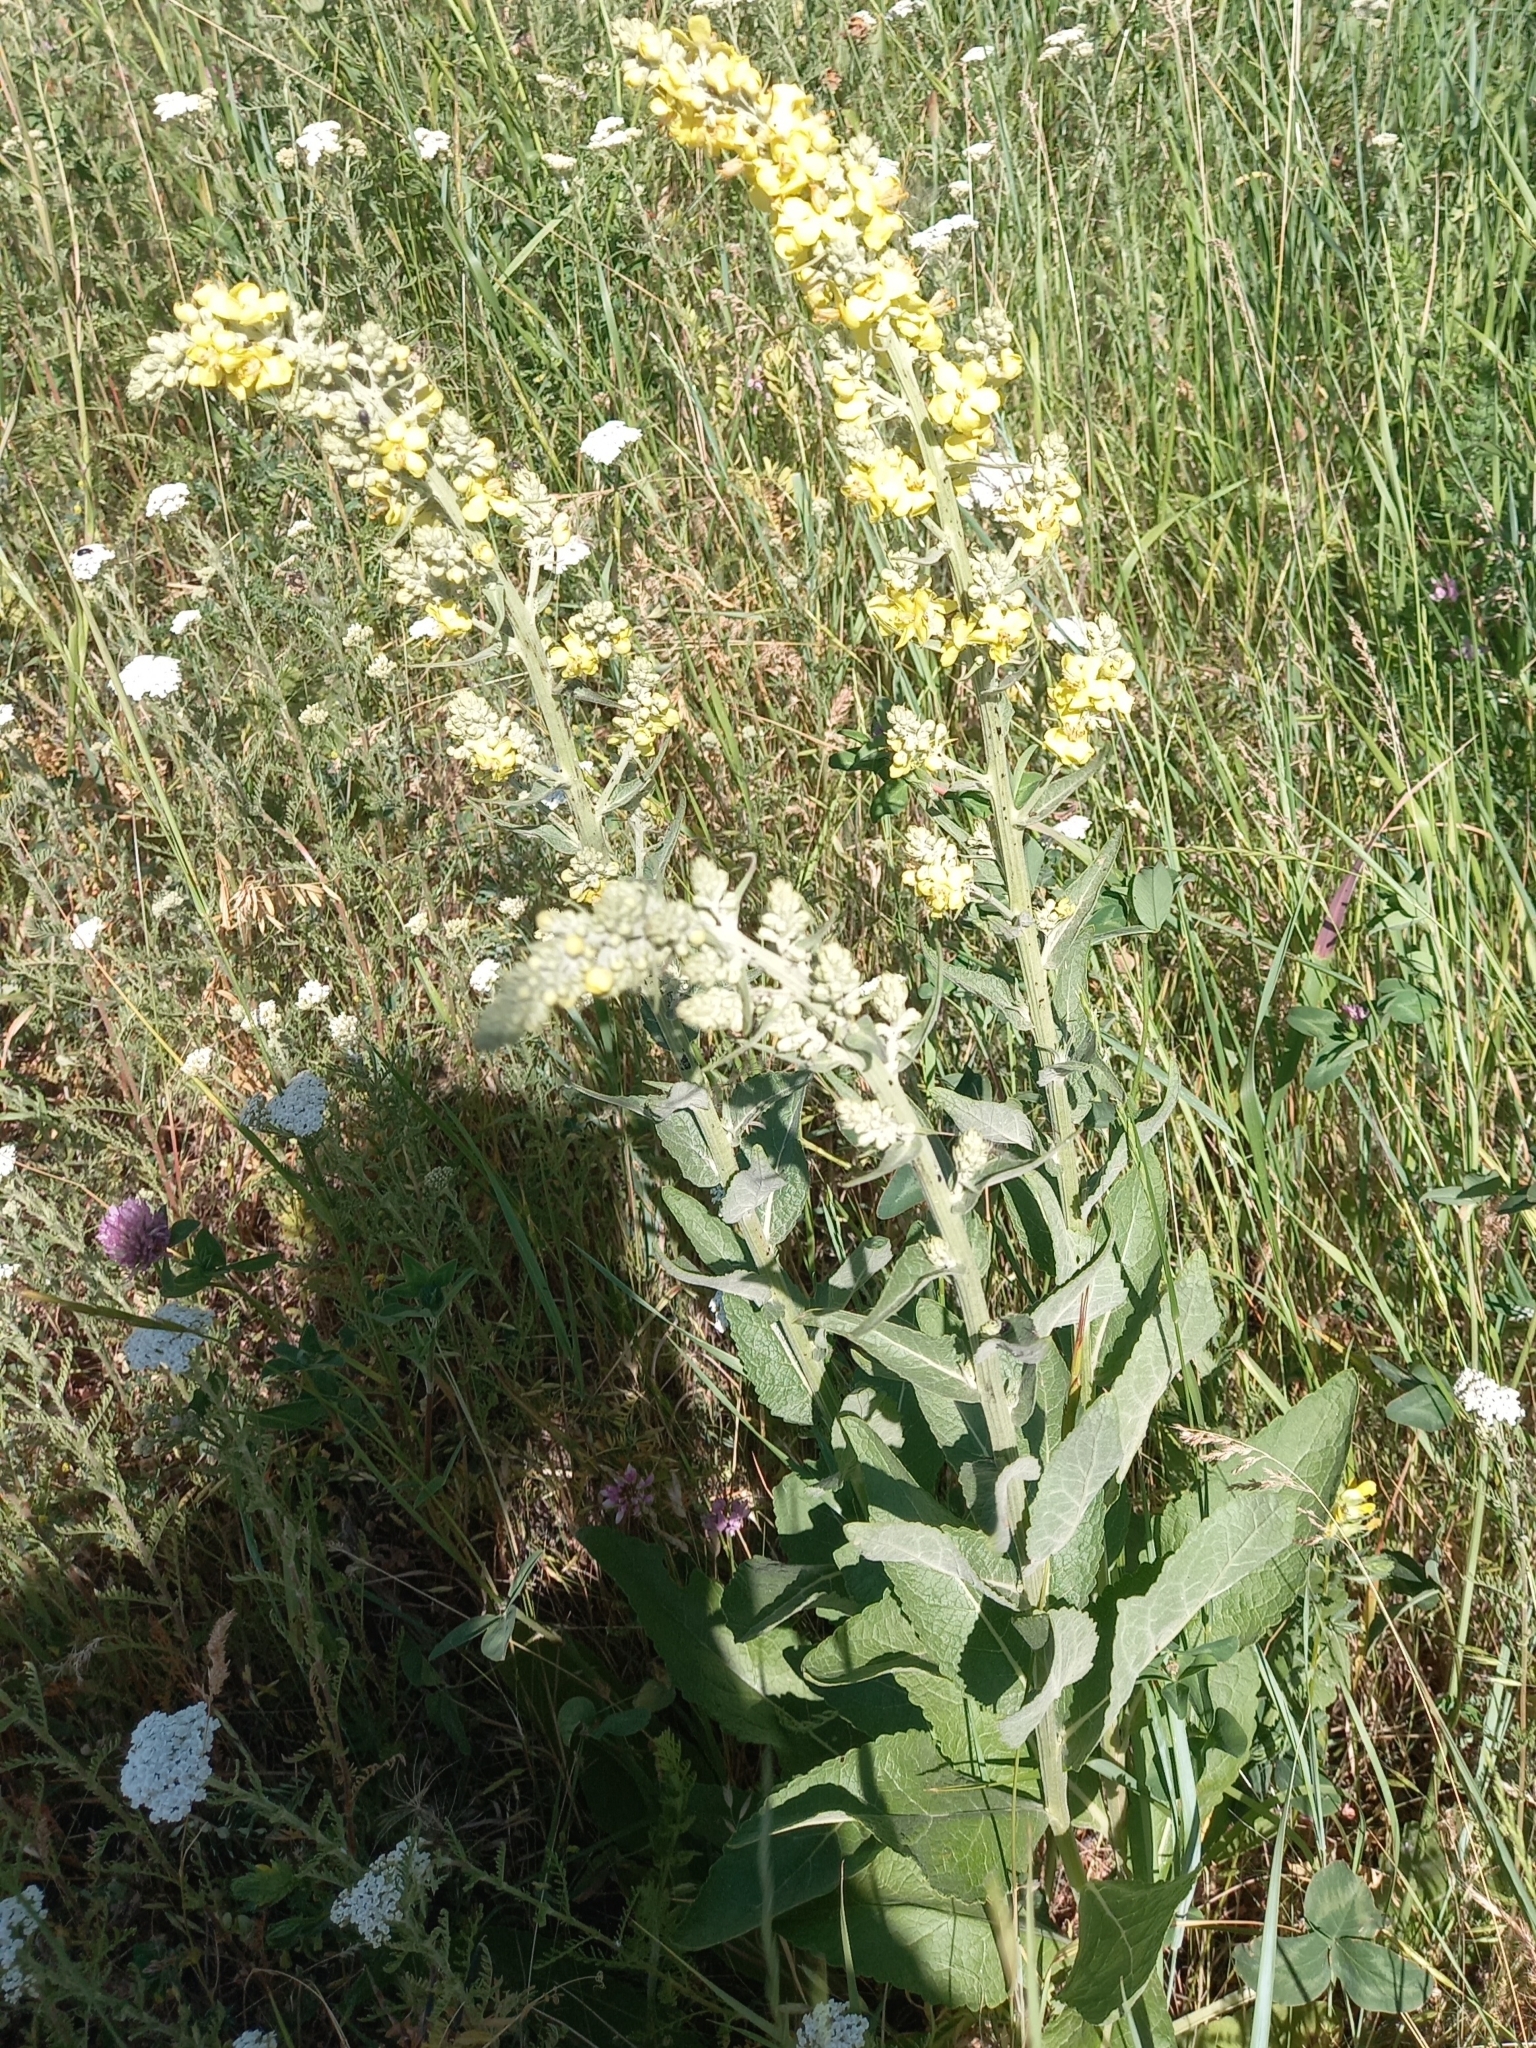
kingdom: Plantae
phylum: Tracheophyta
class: Magnoliopsida
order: Lamiales
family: Scrophulariaceae
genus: Verbascum
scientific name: Verbascum lychnitis
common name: White mullein
